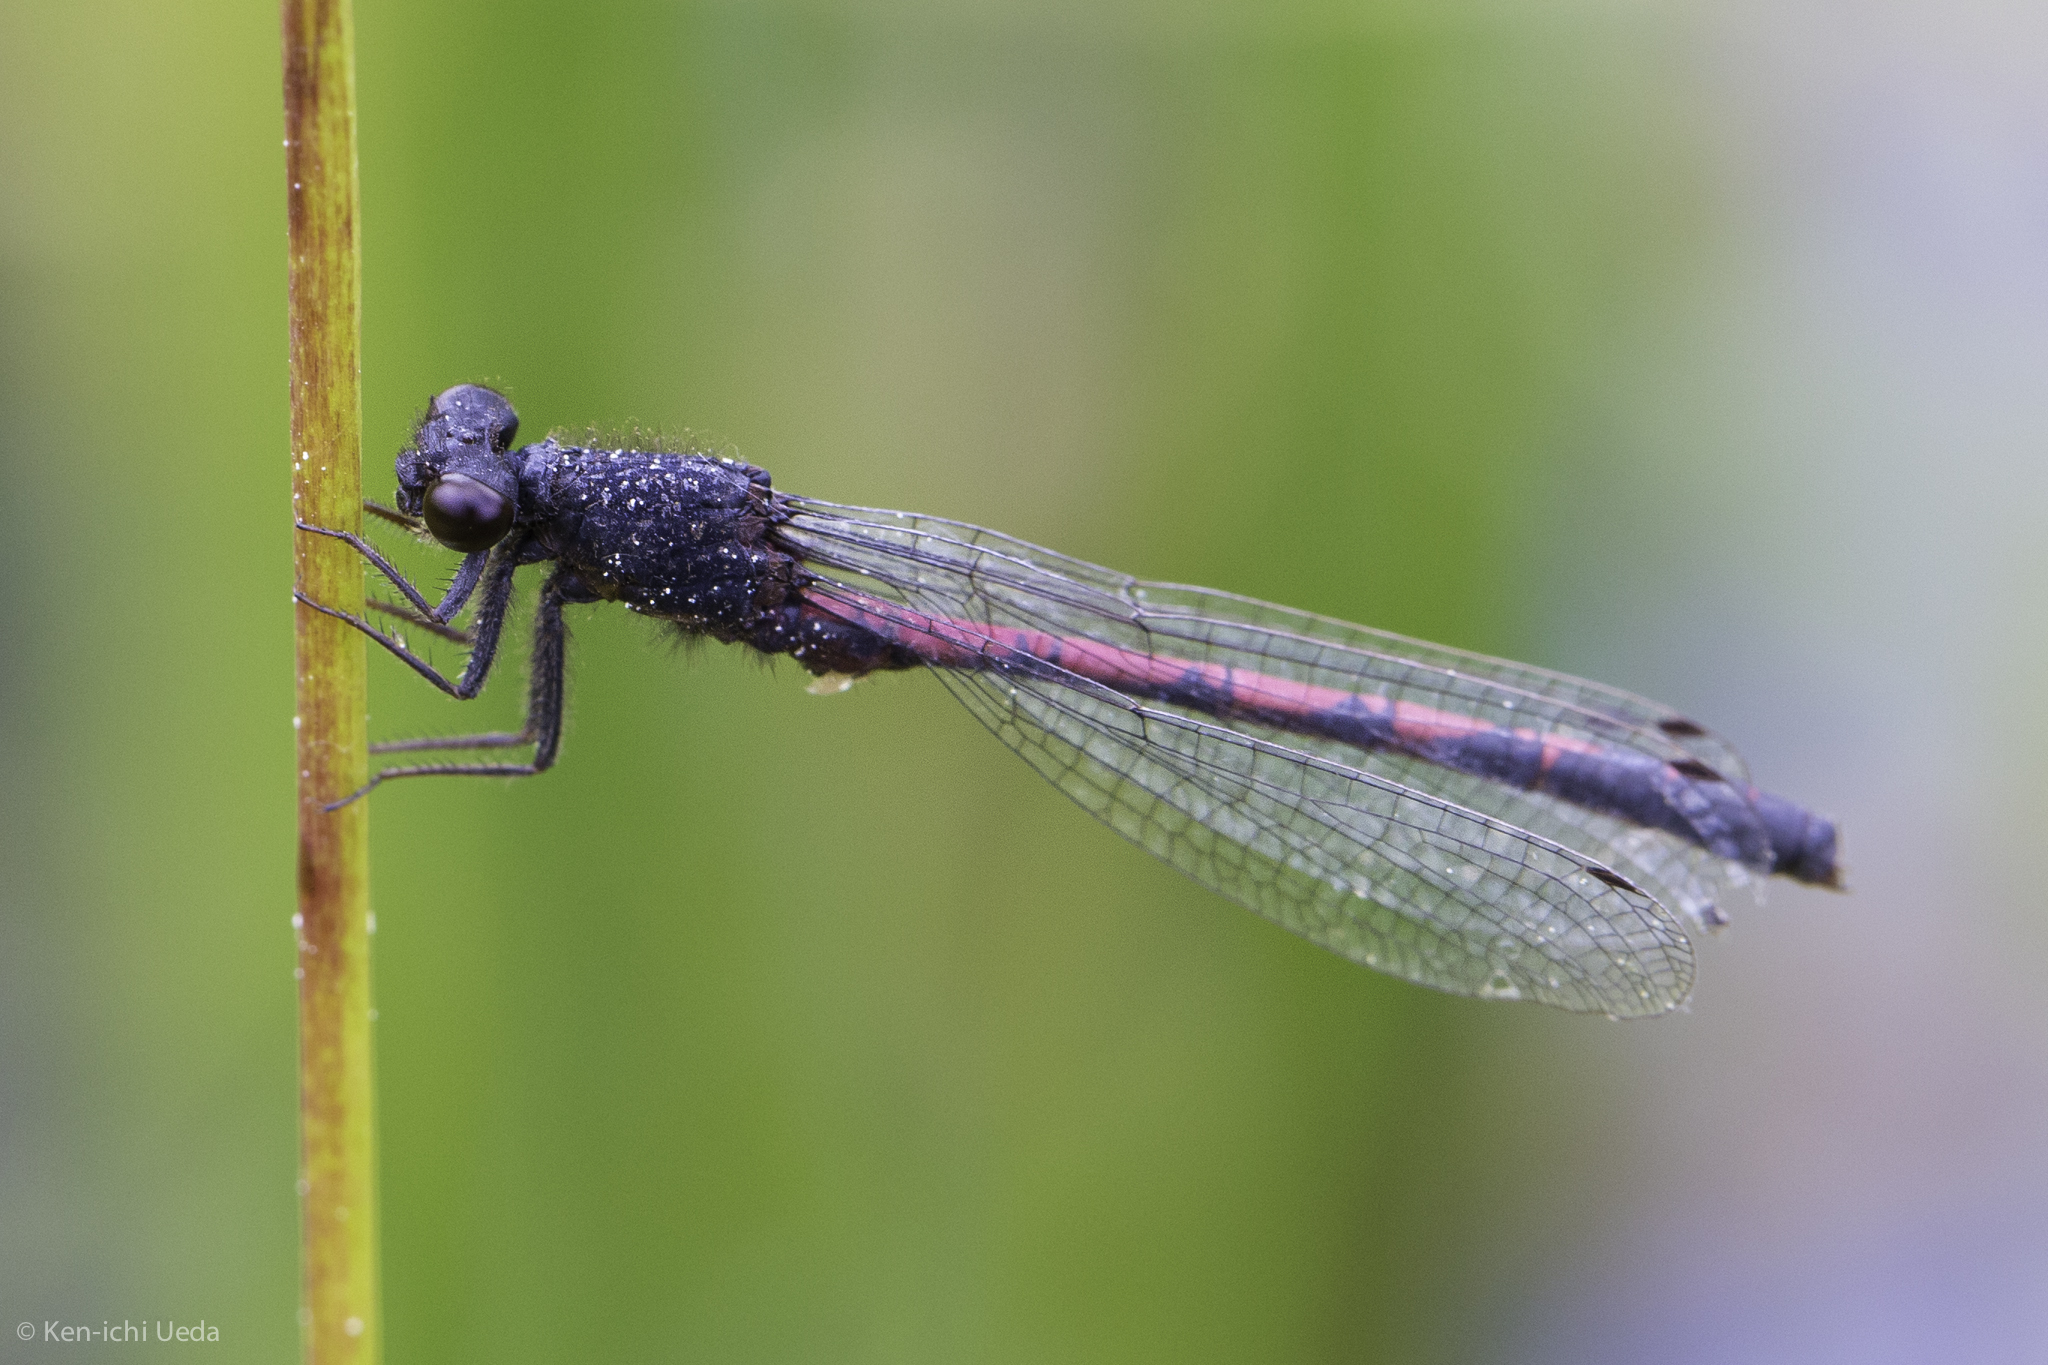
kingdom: Animalia
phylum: Arthropoda
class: Insecta
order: Odonata
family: Coenagrionidae
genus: Amphiagrion
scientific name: Amphiagrion abbreviatum
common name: Western red damsel
